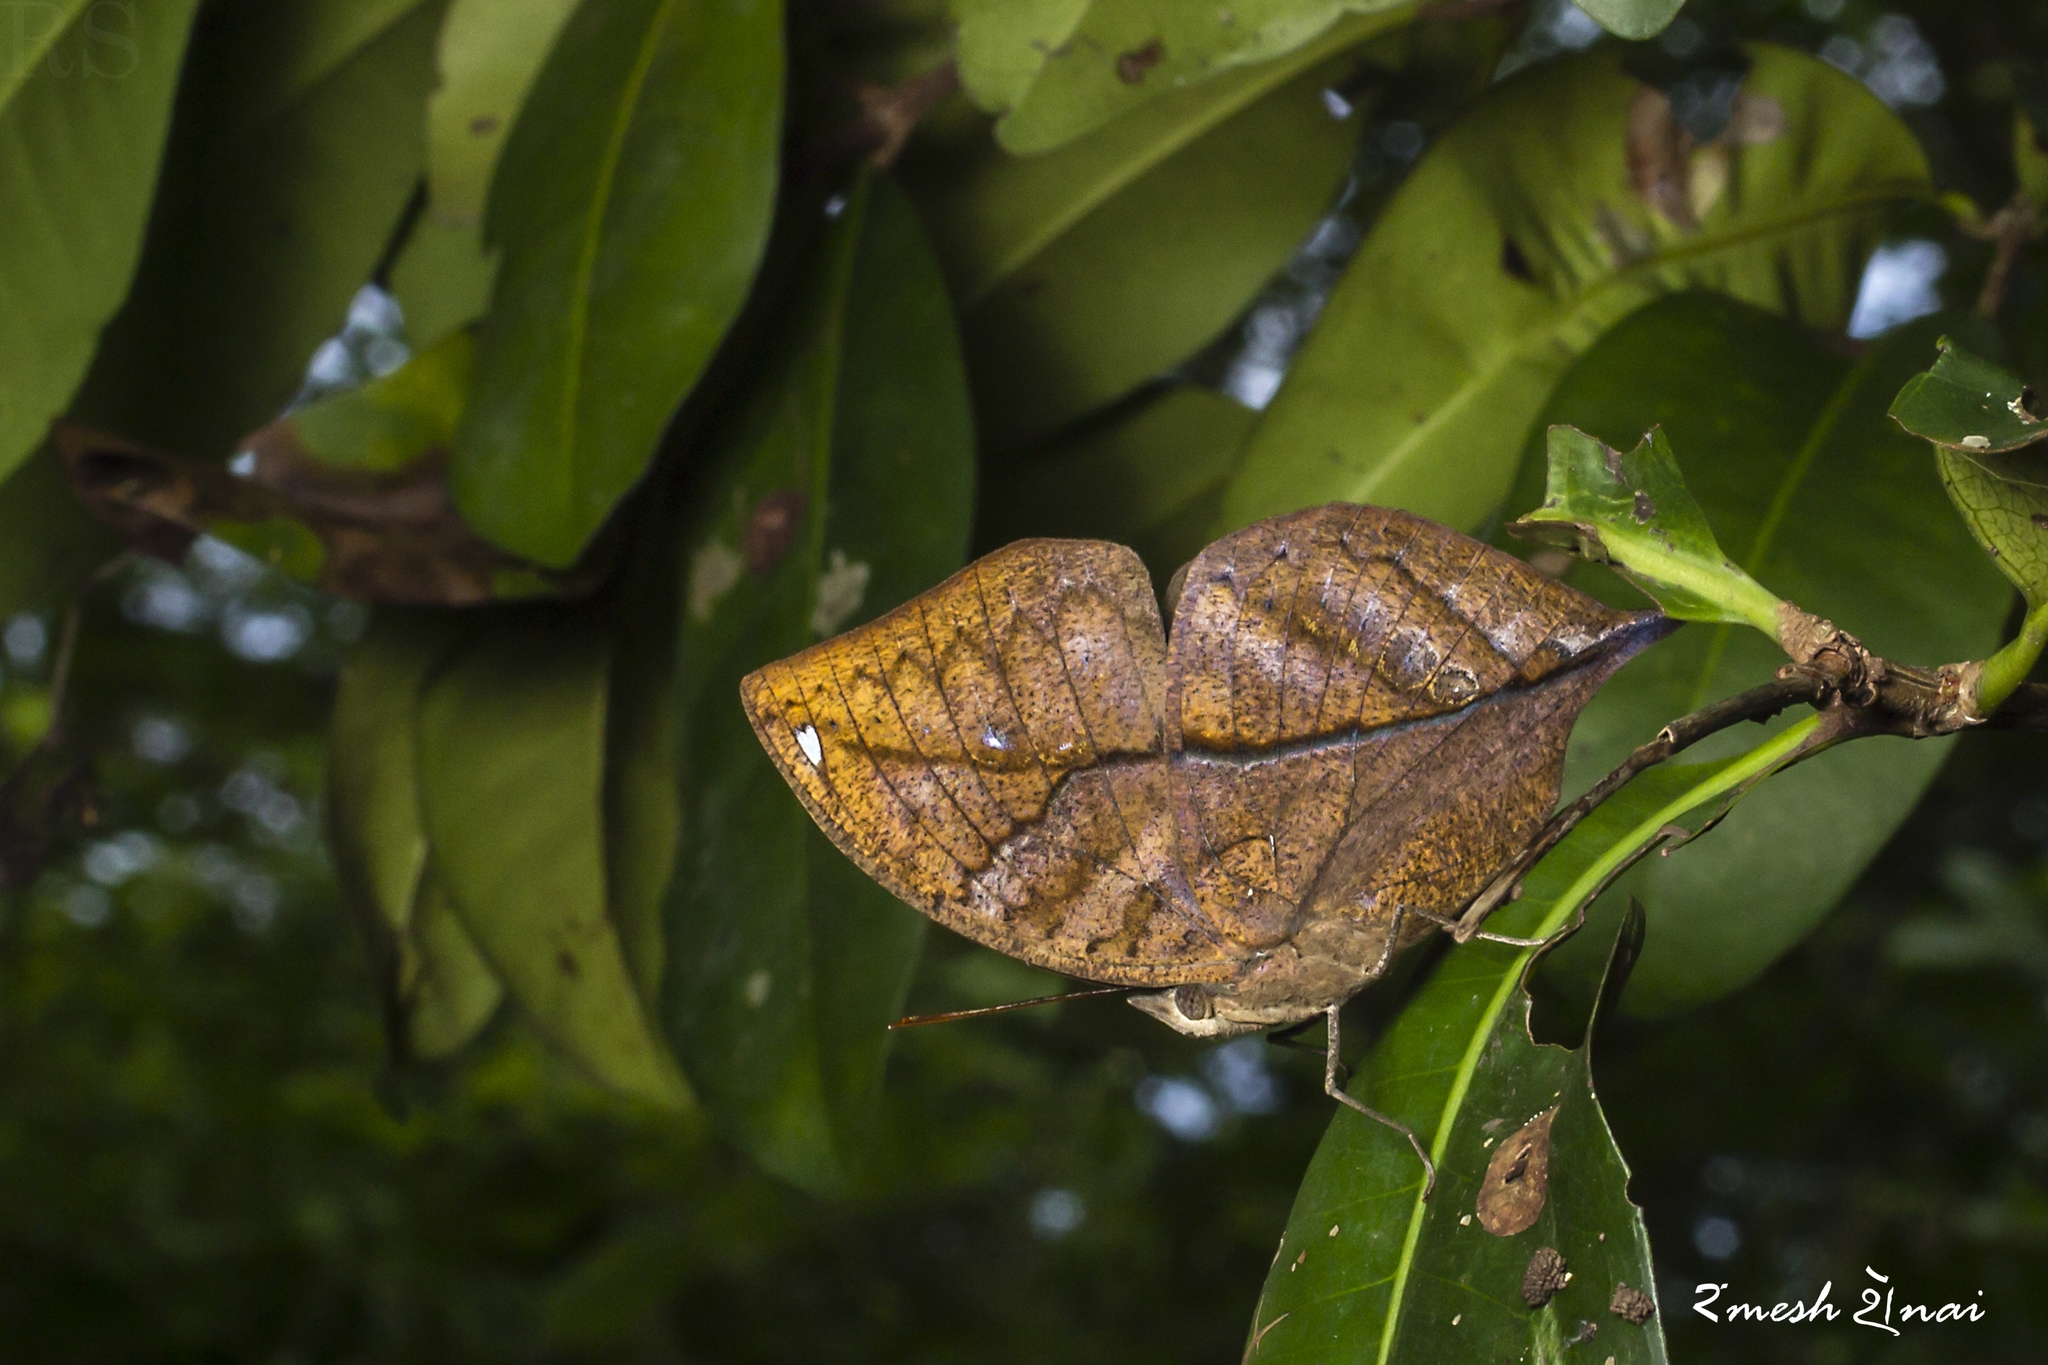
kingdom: Animalia
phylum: Arthropoda
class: Insecta
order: Lepidoptera
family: Nymphalidae
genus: Kallima
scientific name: Kallima horsfieldii
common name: Sahyadri blue oakleaf
